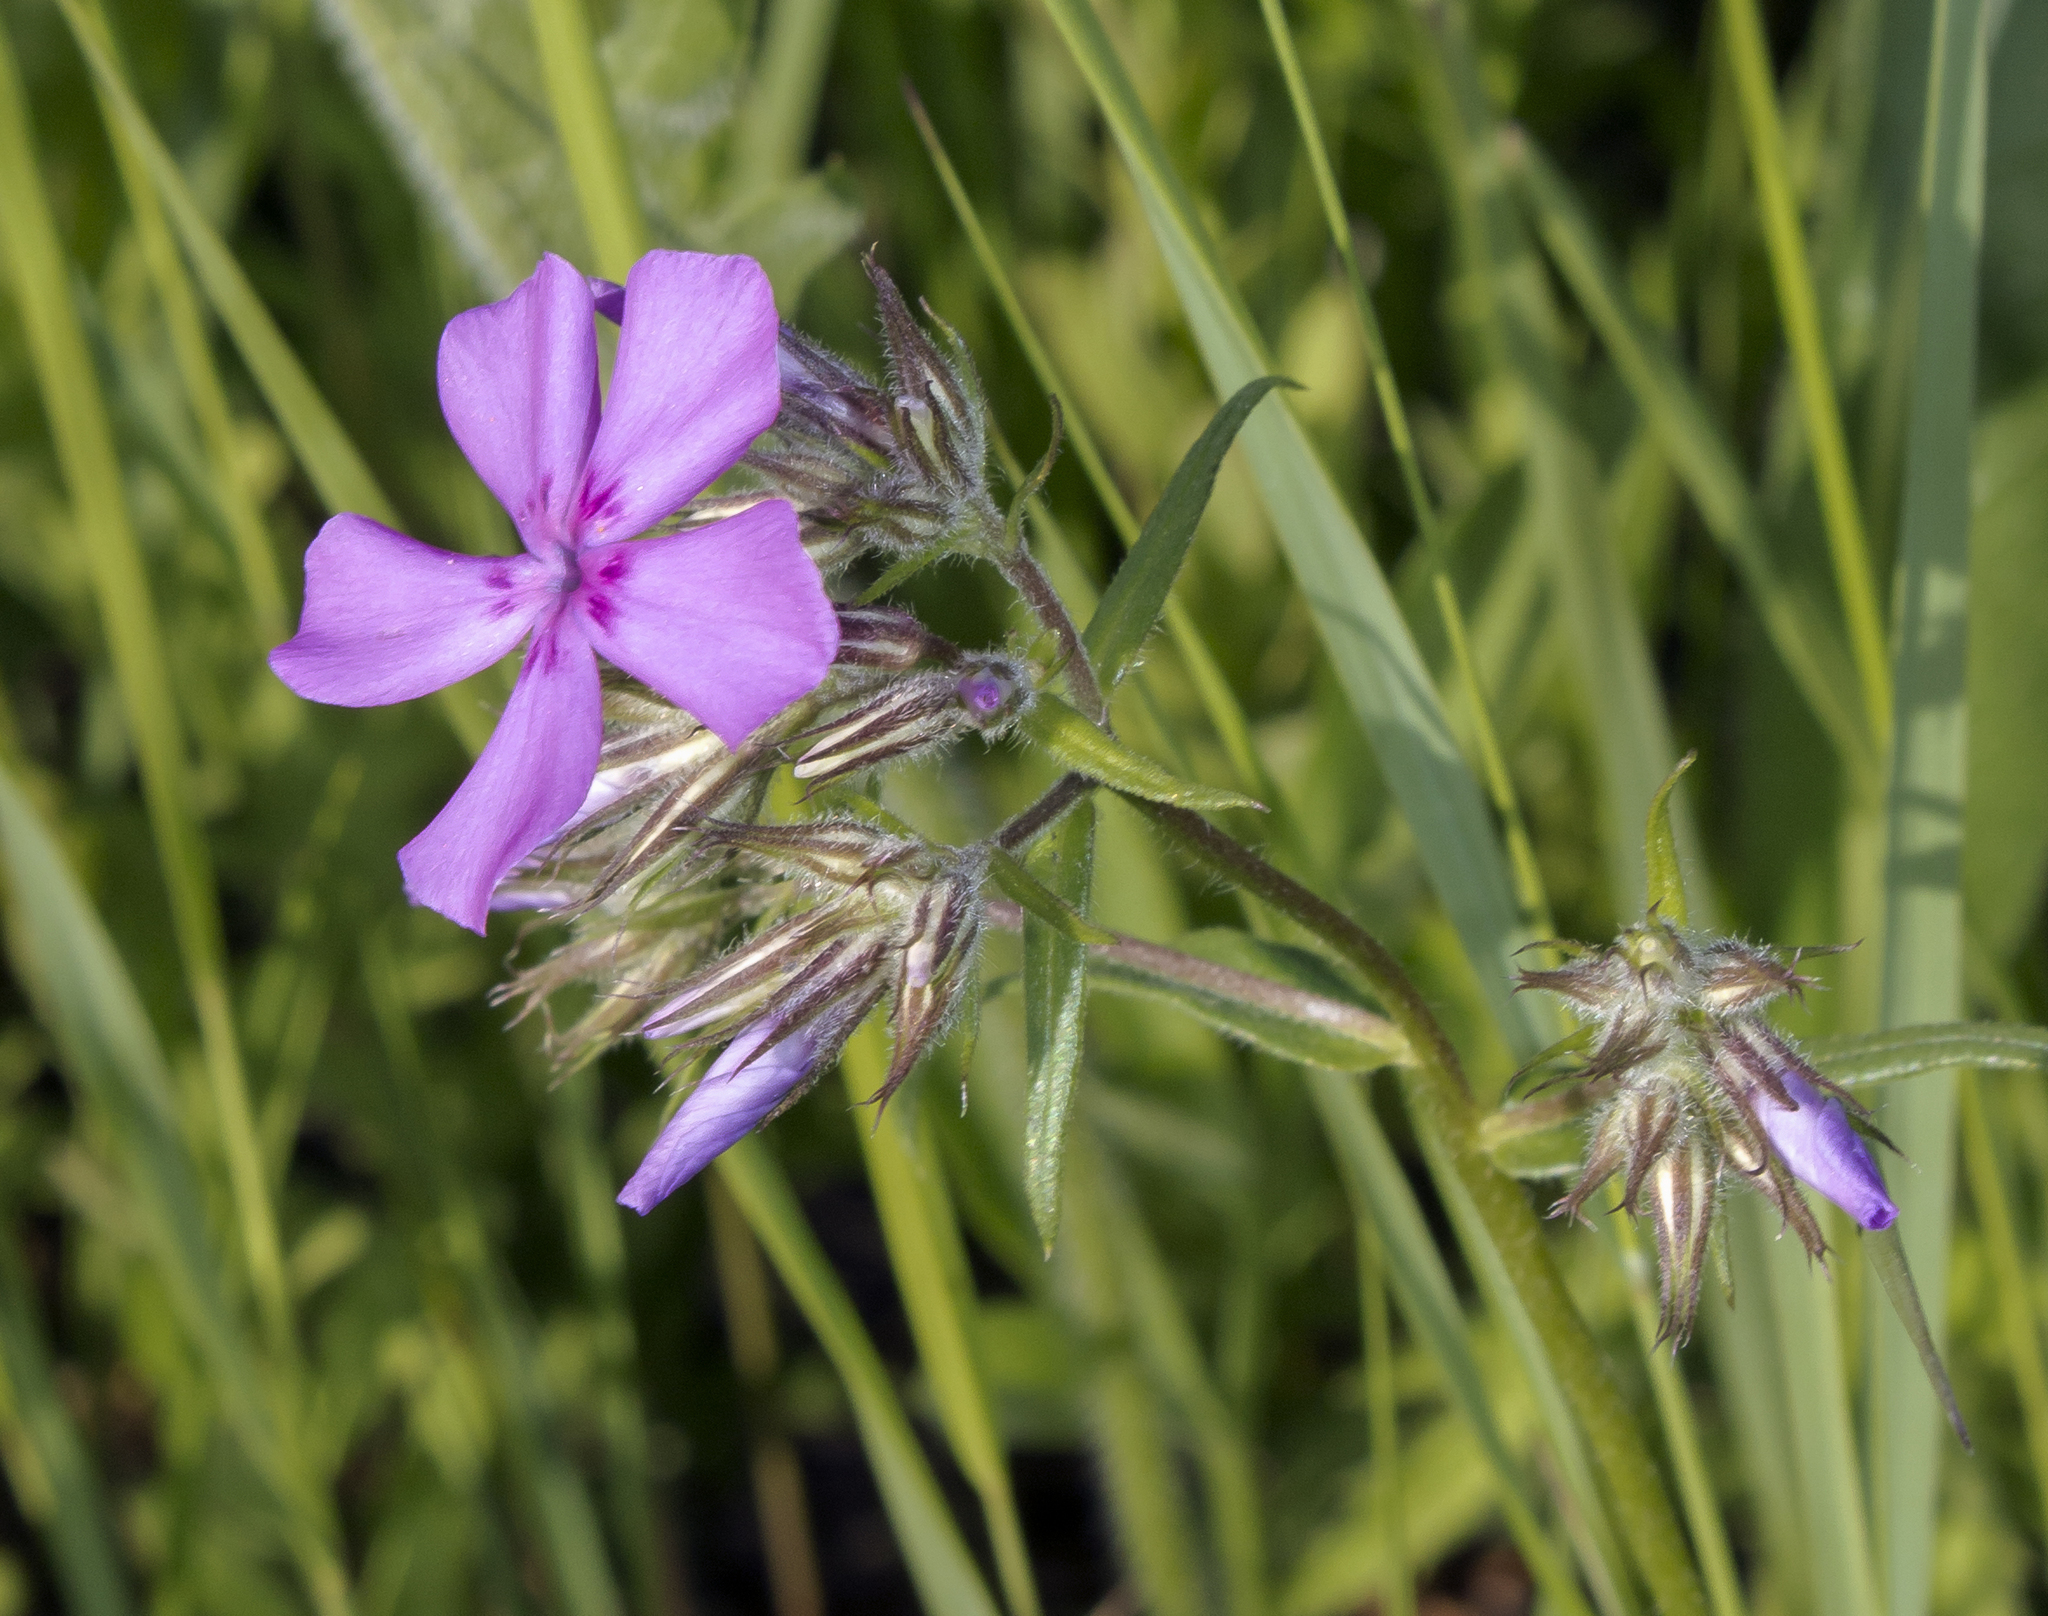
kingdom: Plantae
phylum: Tracheophyta
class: Magnoliopsida
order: Ericales
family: Polemoniaceae
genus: Phlox
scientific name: Phlox pilosa
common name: Prairie phlox
